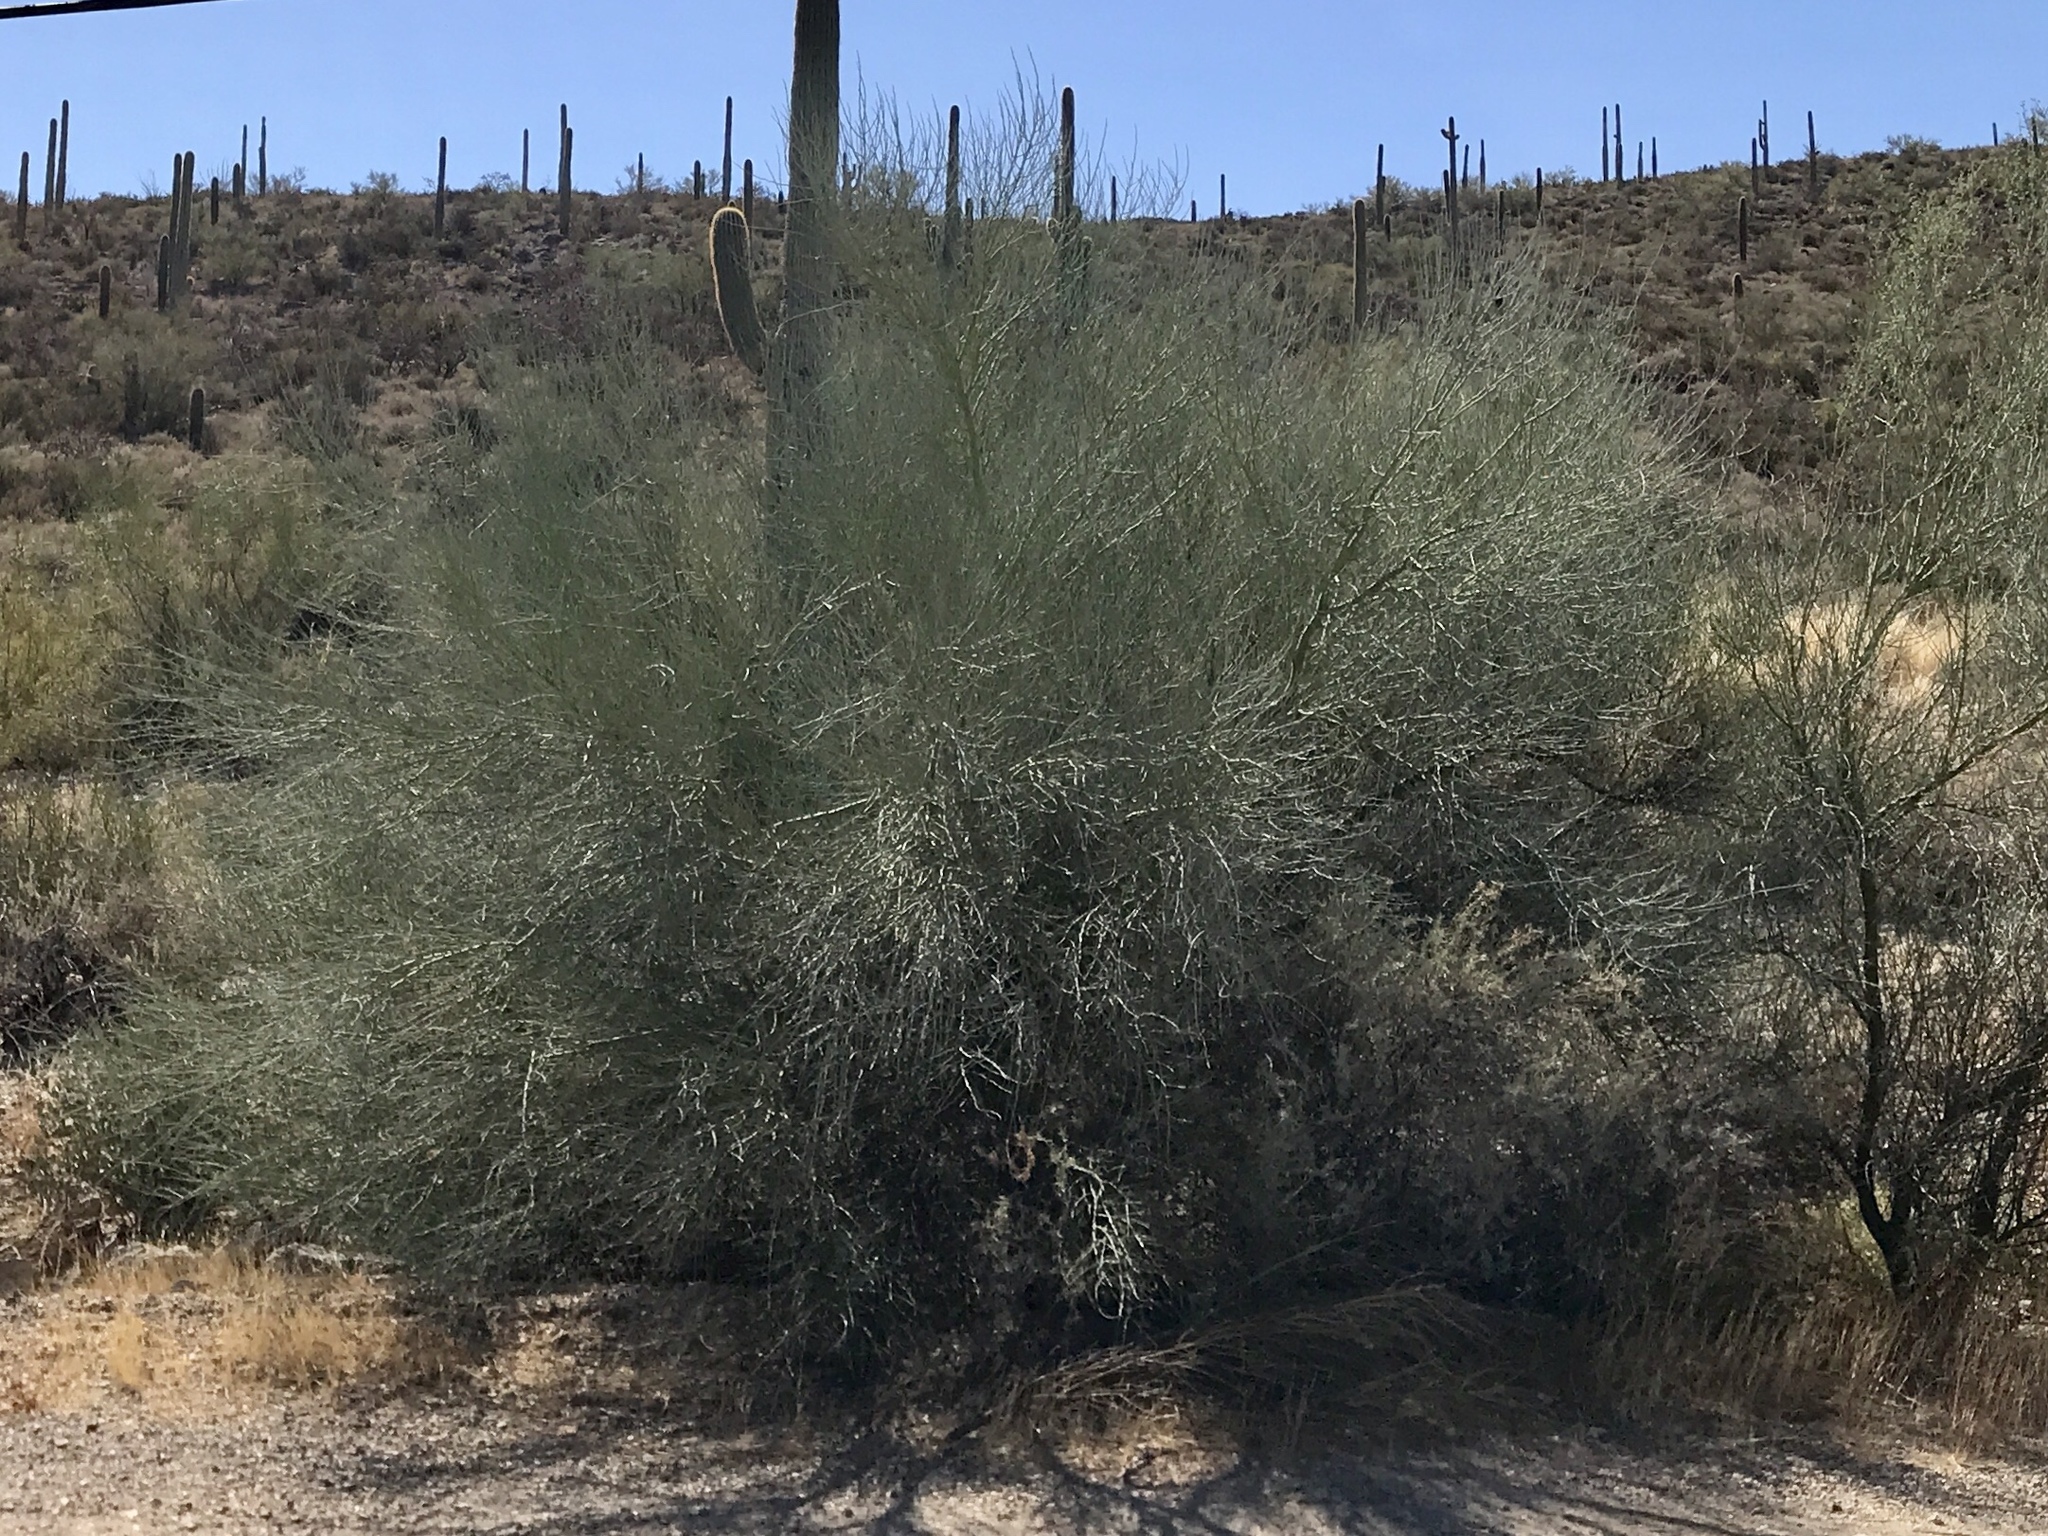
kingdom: Plantae
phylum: Tracheophyta
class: Magnoliopsida
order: Fabales
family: Fabaceae
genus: Parkinsonia
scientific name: Parkinsonia florida
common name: Blue paloverde
